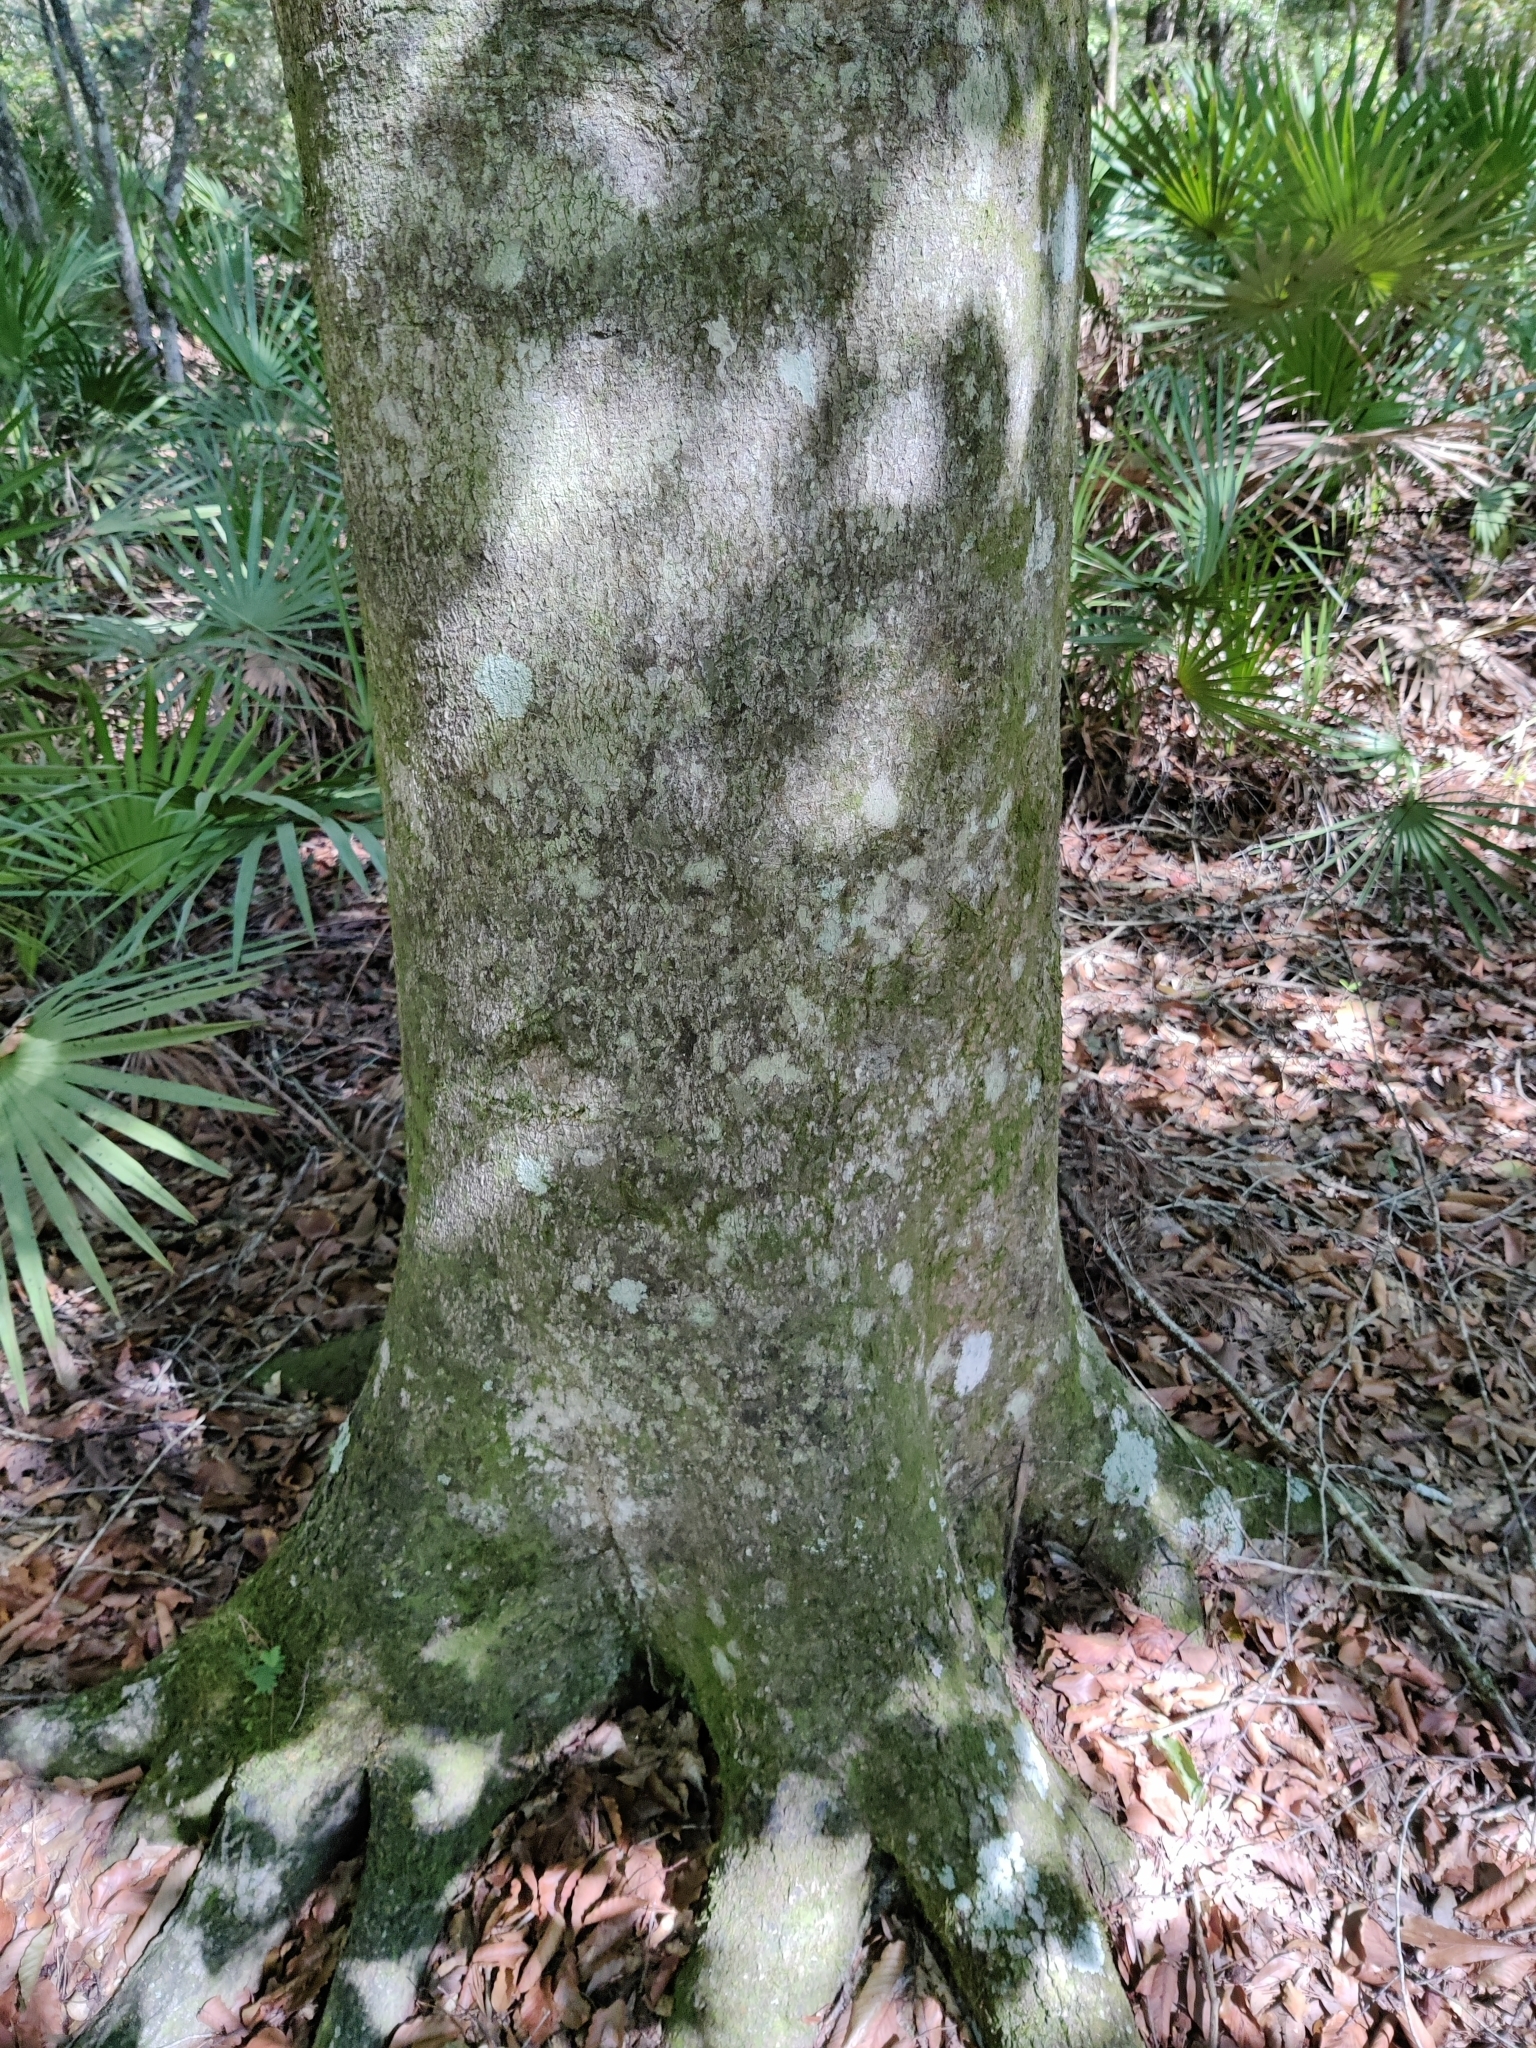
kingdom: Plantae
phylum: Tracheophyta
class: Magnoliopsida
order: Fagales
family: Fagaceae
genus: Fagus
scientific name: Fagus grandifolia
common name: American beech
